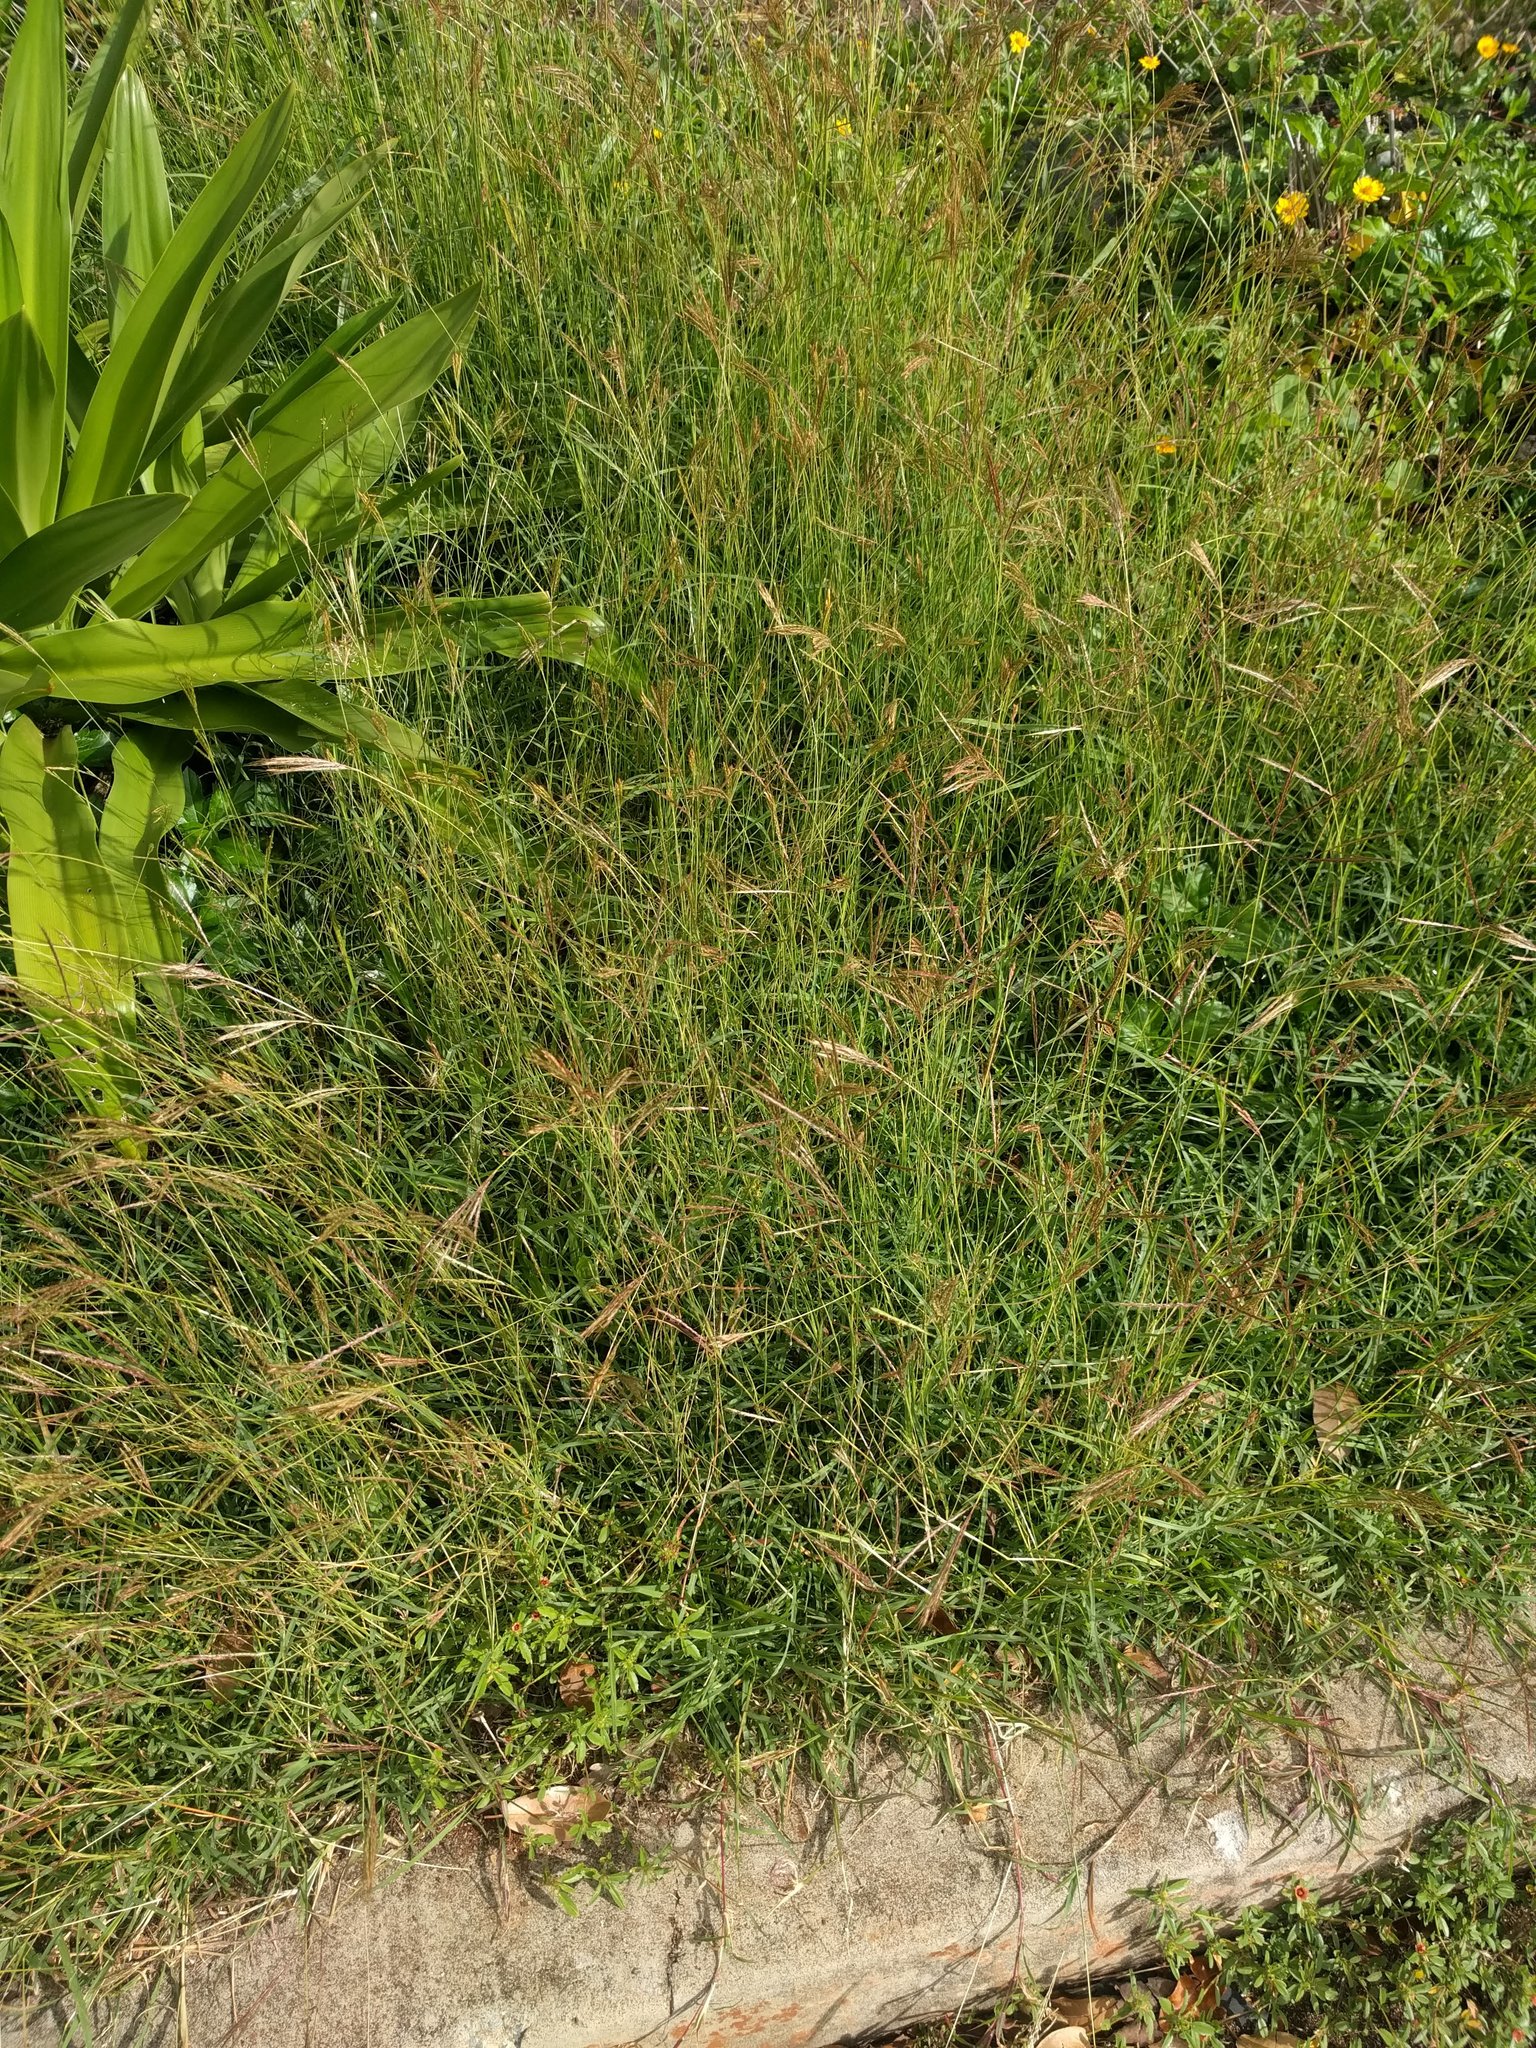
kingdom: Plantae
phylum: Tracheophyta
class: Liliopsida
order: Poales
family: Poaceae
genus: Bothriochloa
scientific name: Bothriochloa pertusa
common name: Pitted beardgrass
